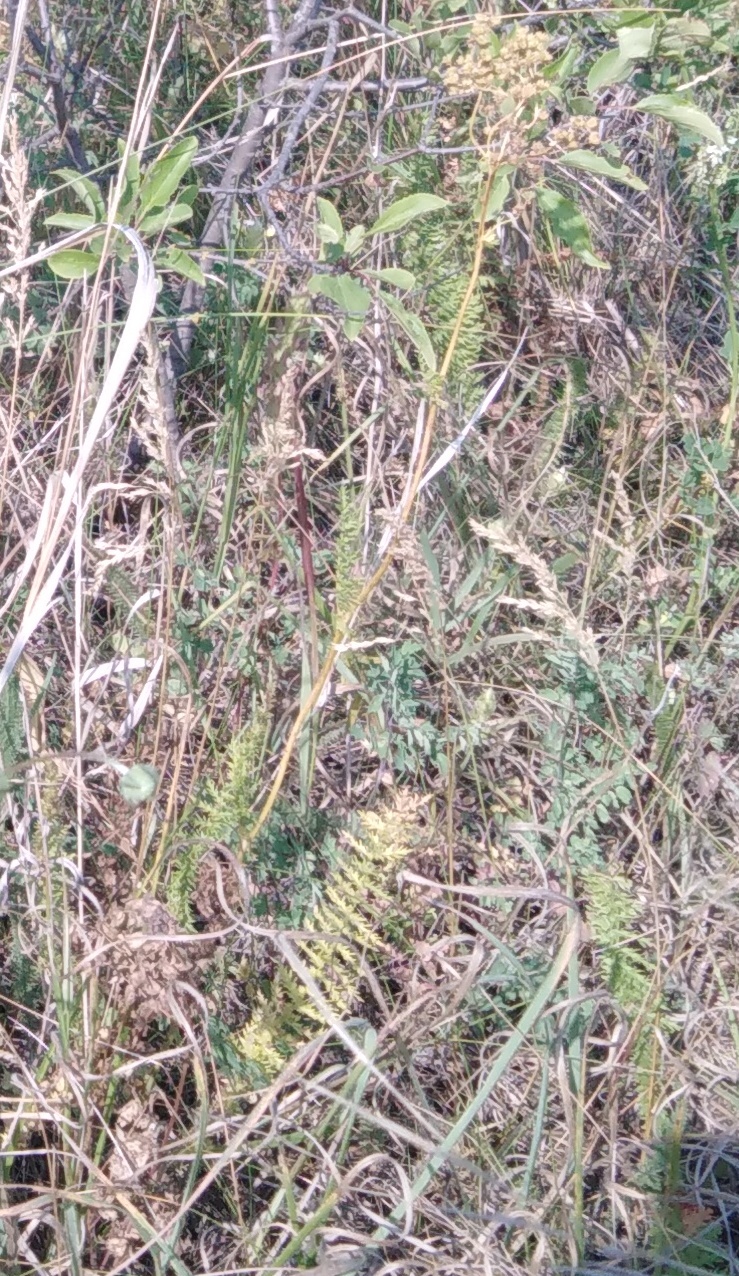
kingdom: Plantae
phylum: Tracheophyta
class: Magnoliopsida
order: Rosales
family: Rosaceae
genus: Filipendula
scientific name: Filipendula vulgaris
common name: Dropwort
